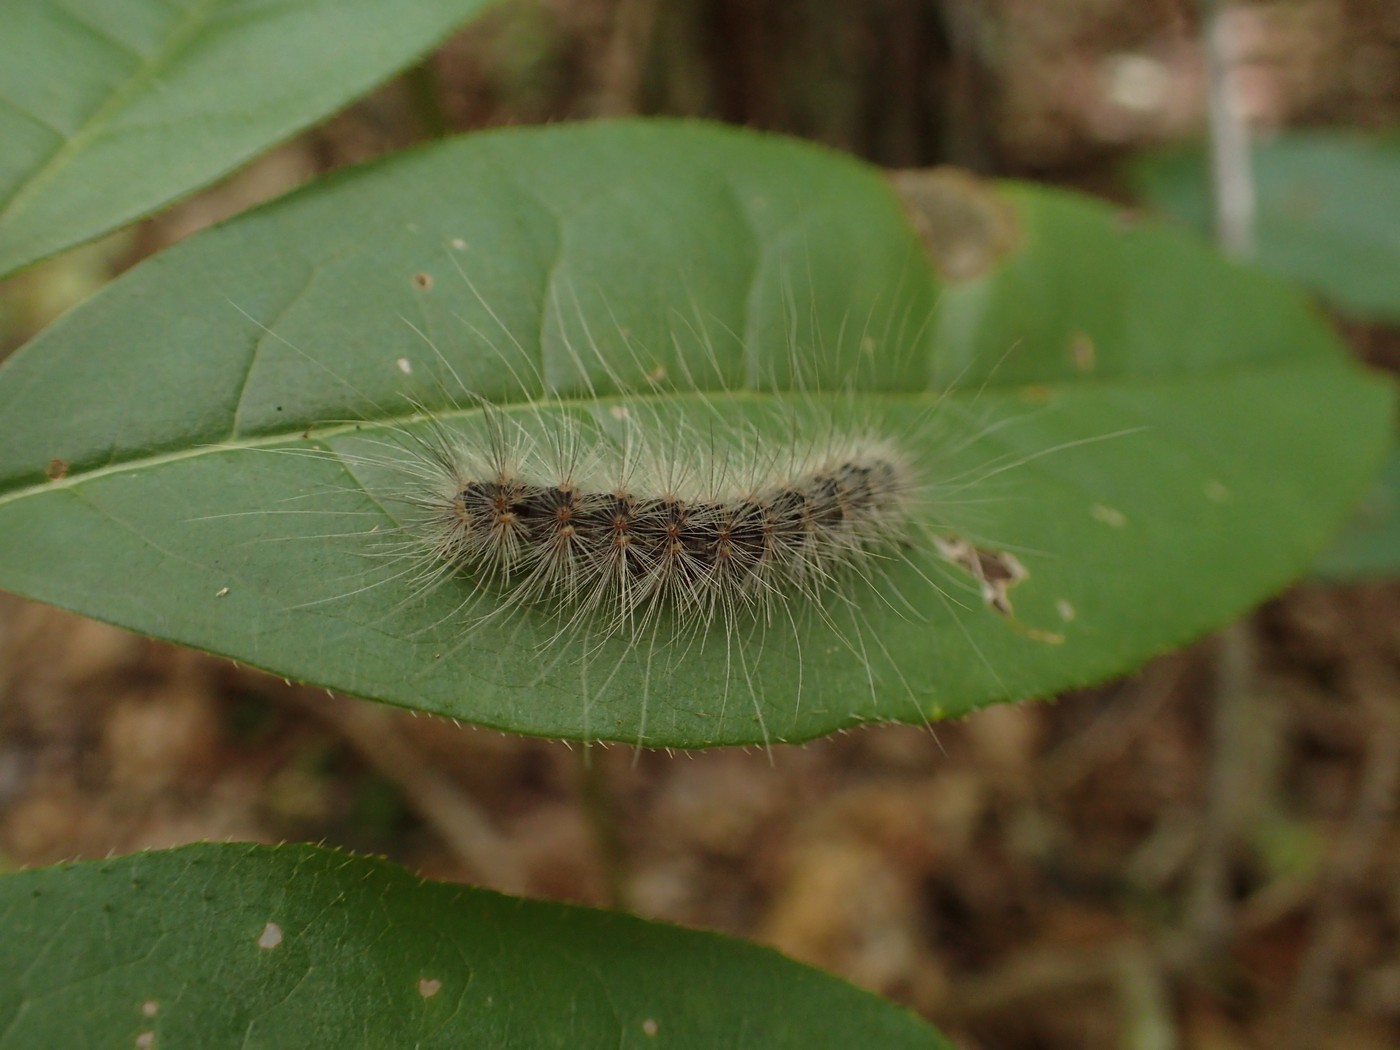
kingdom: Animalia
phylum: Arthropoda
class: Insecta
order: Lepidoptera
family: Erebidae
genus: Hyphantria
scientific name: Hyphantria cunea
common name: American white moth
